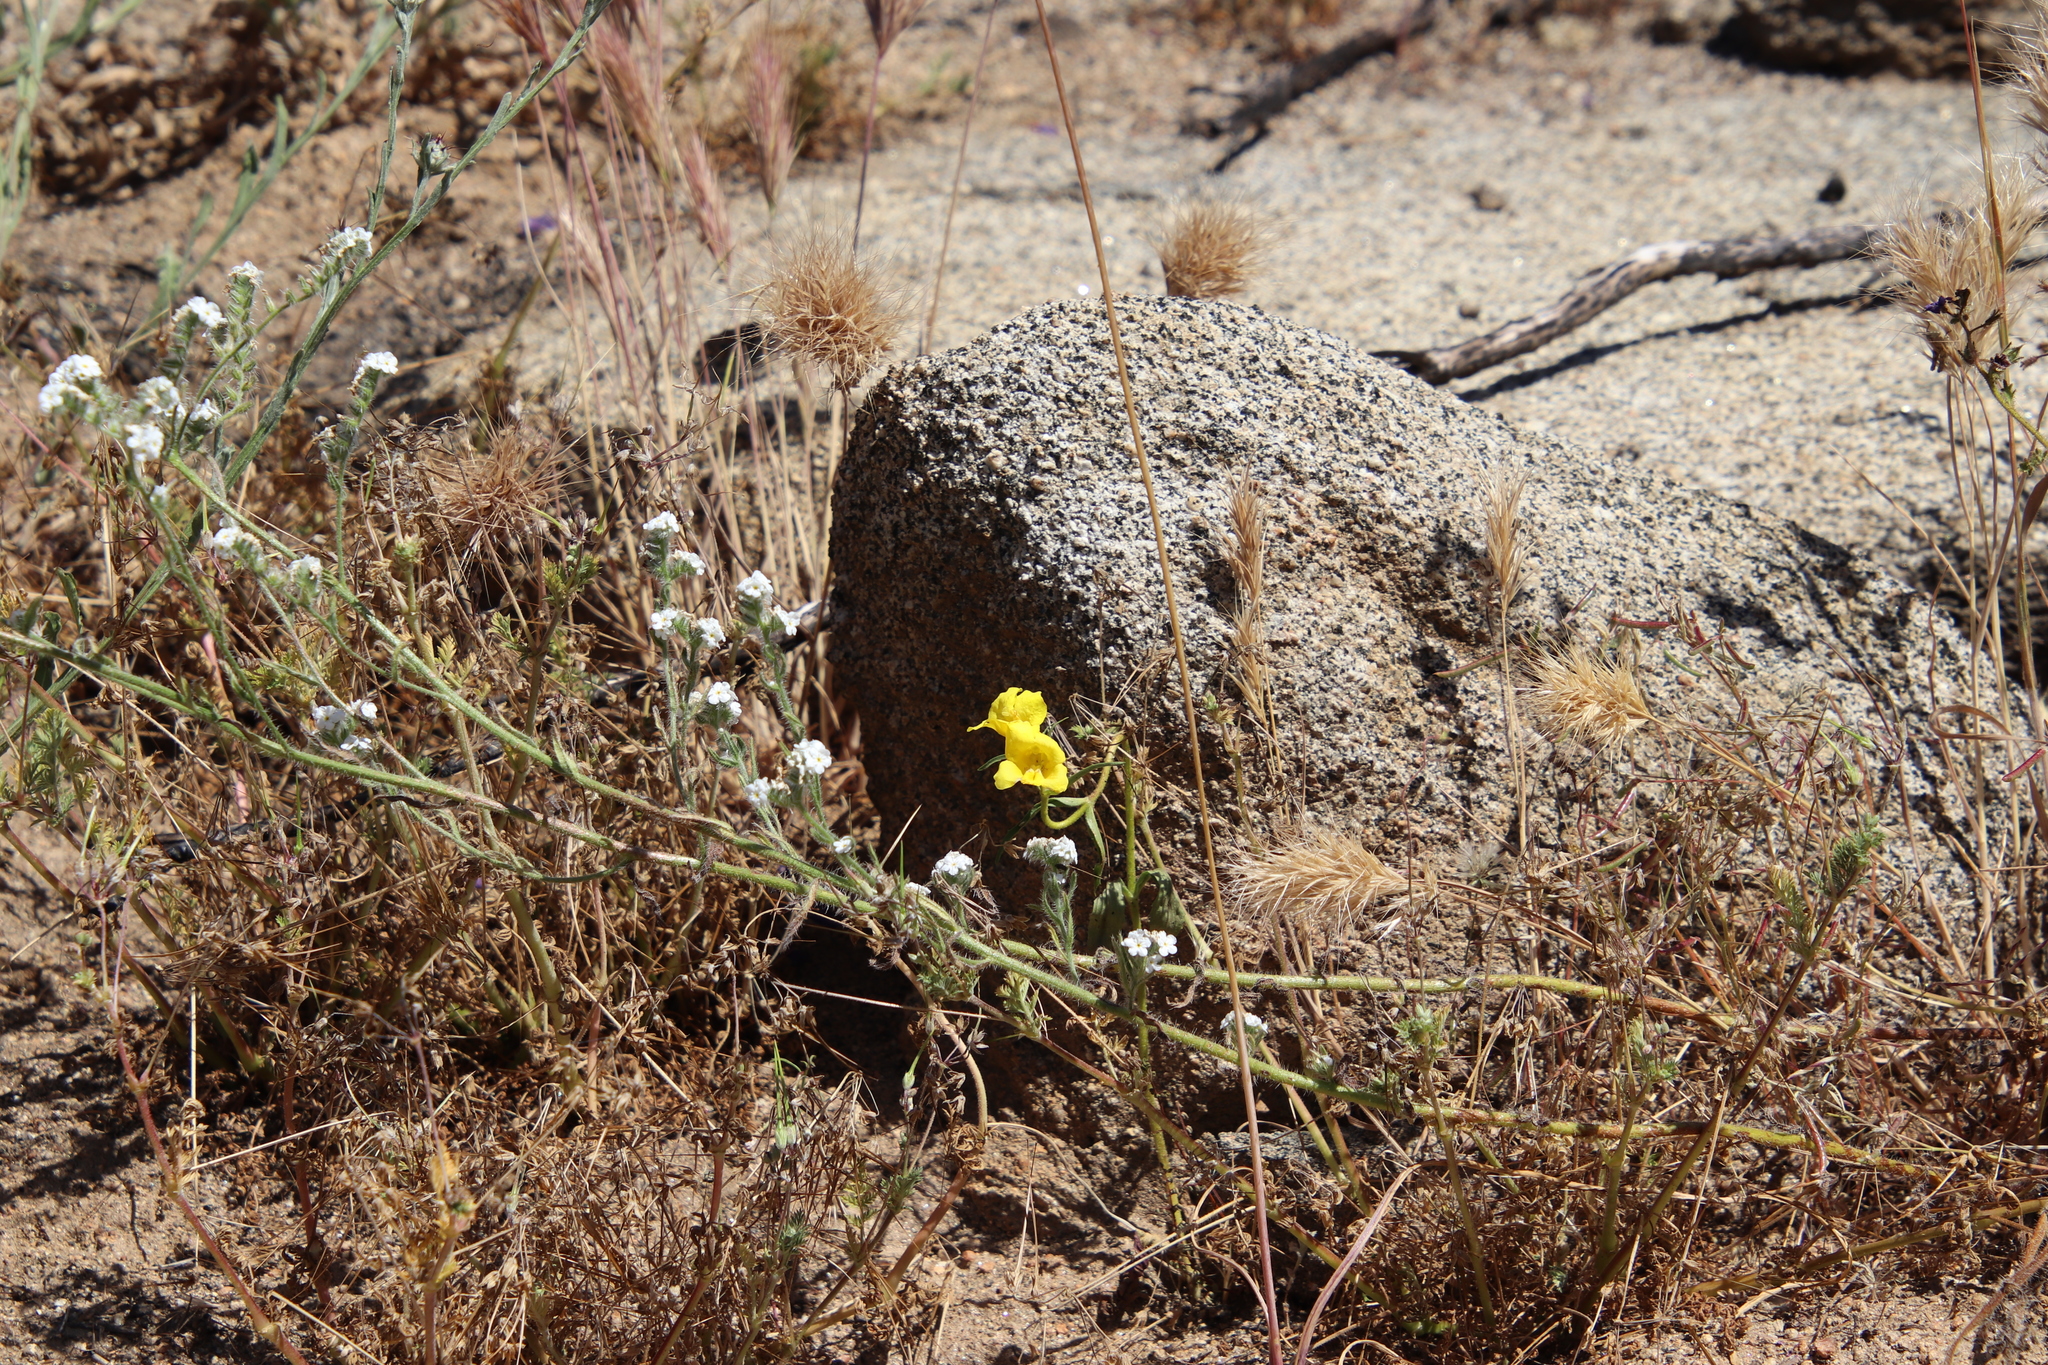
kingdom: Plantae
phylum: Tracheophyta
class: Magnoliopsida
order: Lamiales
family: Phrymaceae
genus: Diplacus
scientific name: Diplacus brevipes
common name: Wide-throat yellow monkey-flower
